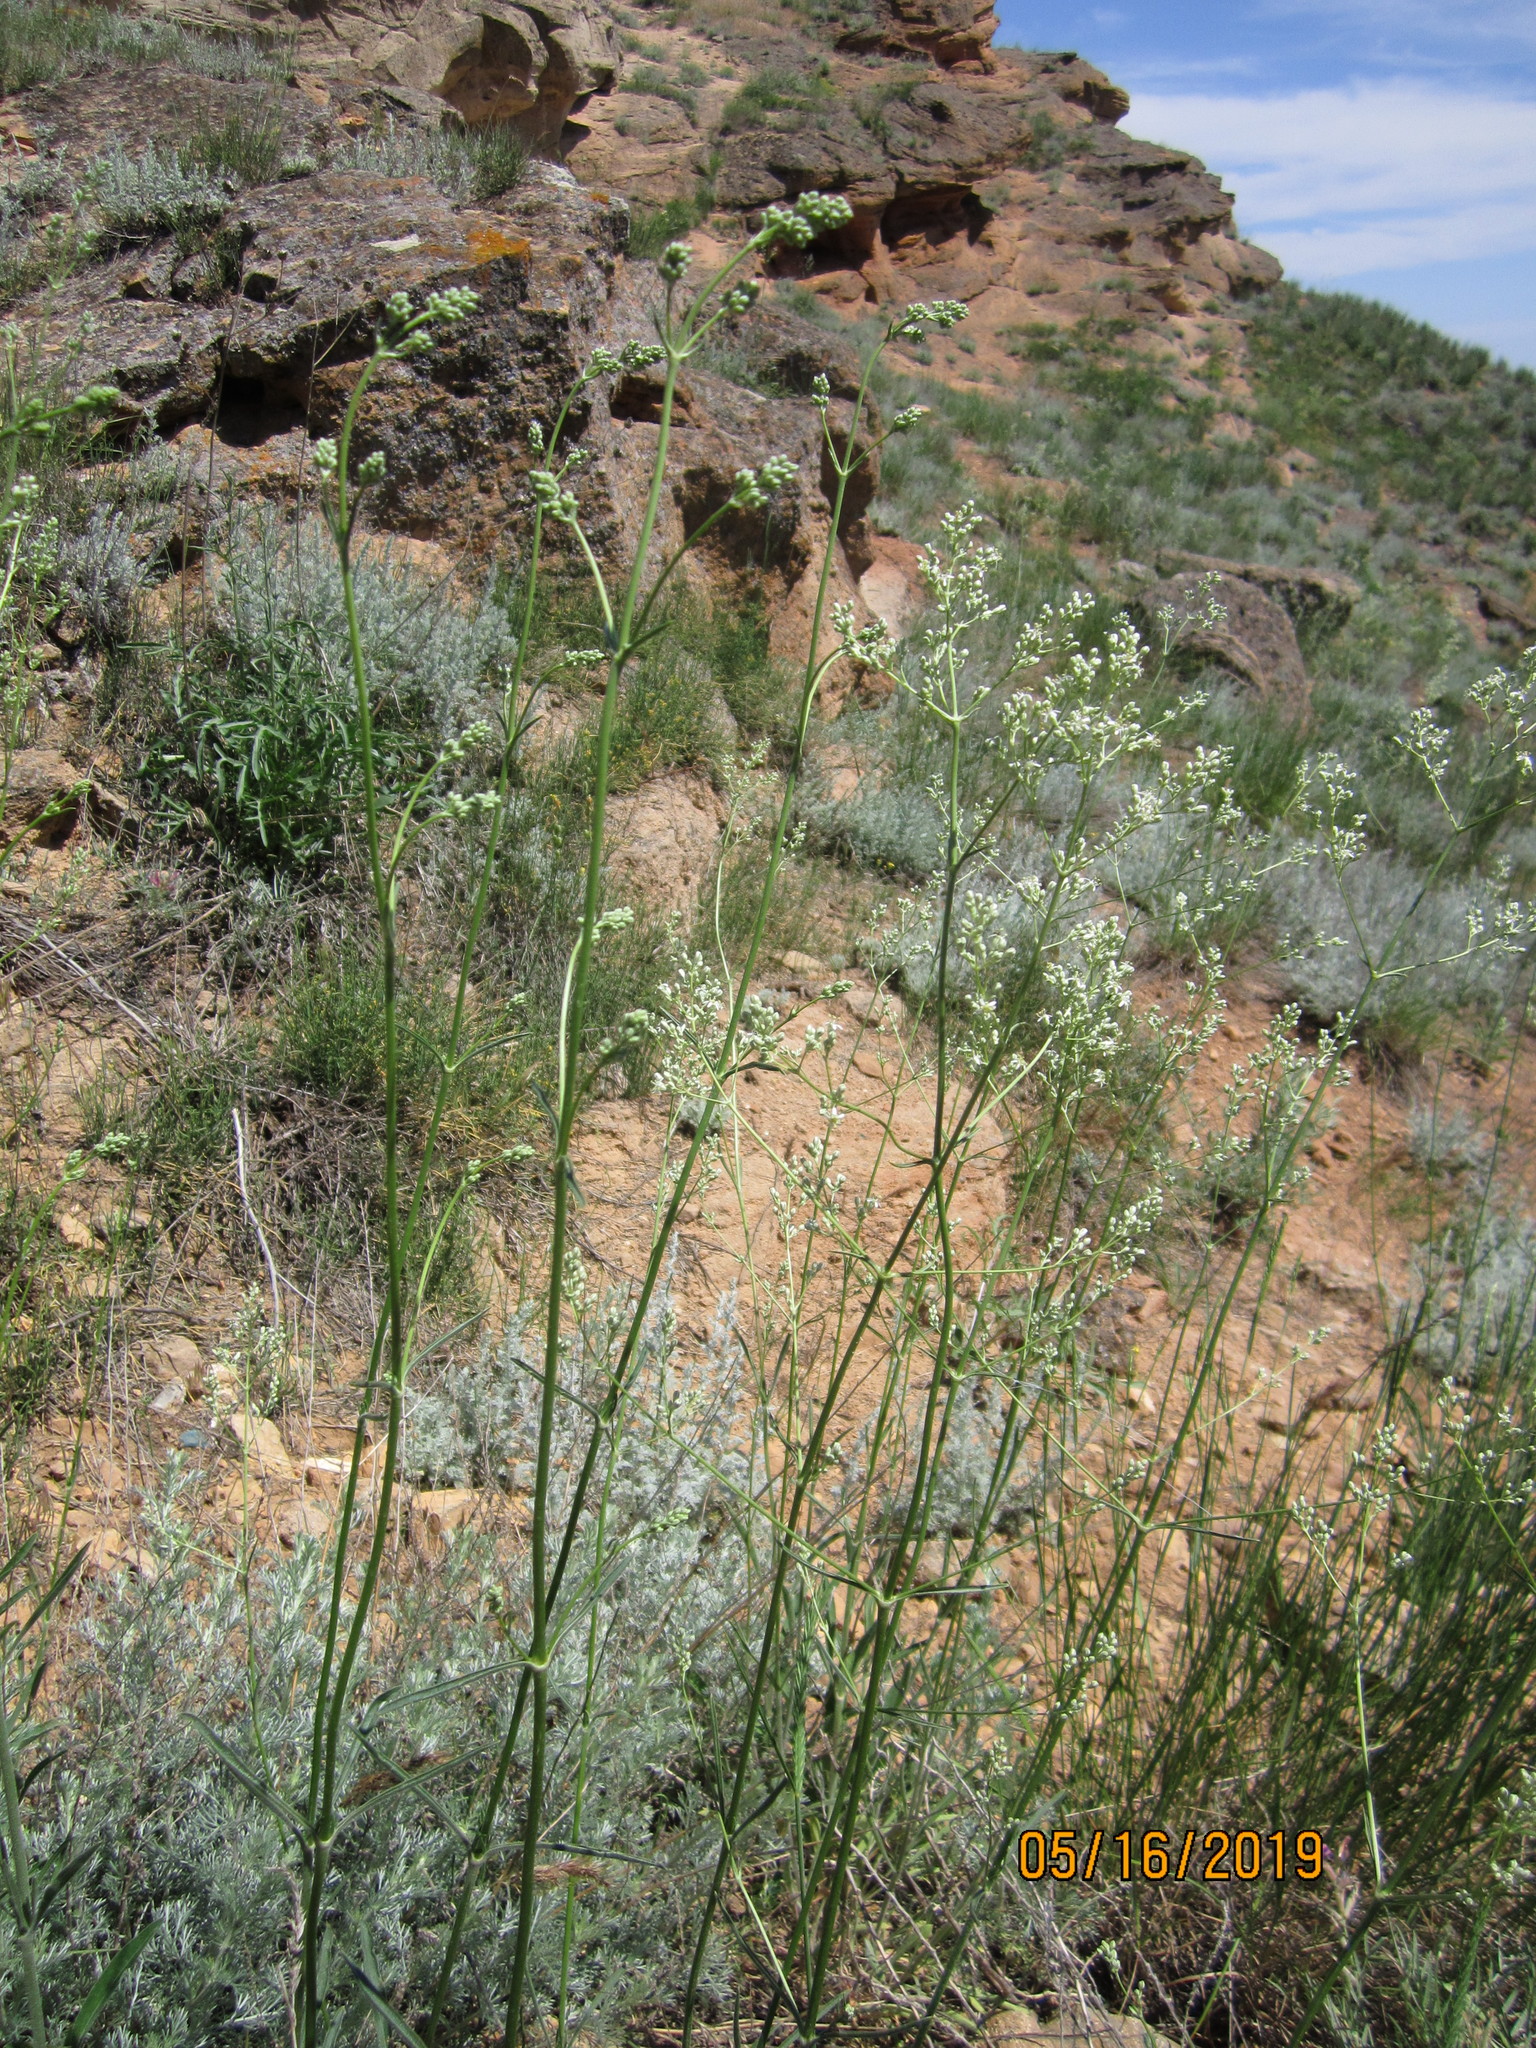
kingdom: Plantae
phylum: Tracheophyta
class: Magnoliopsida
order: Caryophyllales
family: Caryophyllaceae
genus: Silene
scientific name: Silene wolgensis
